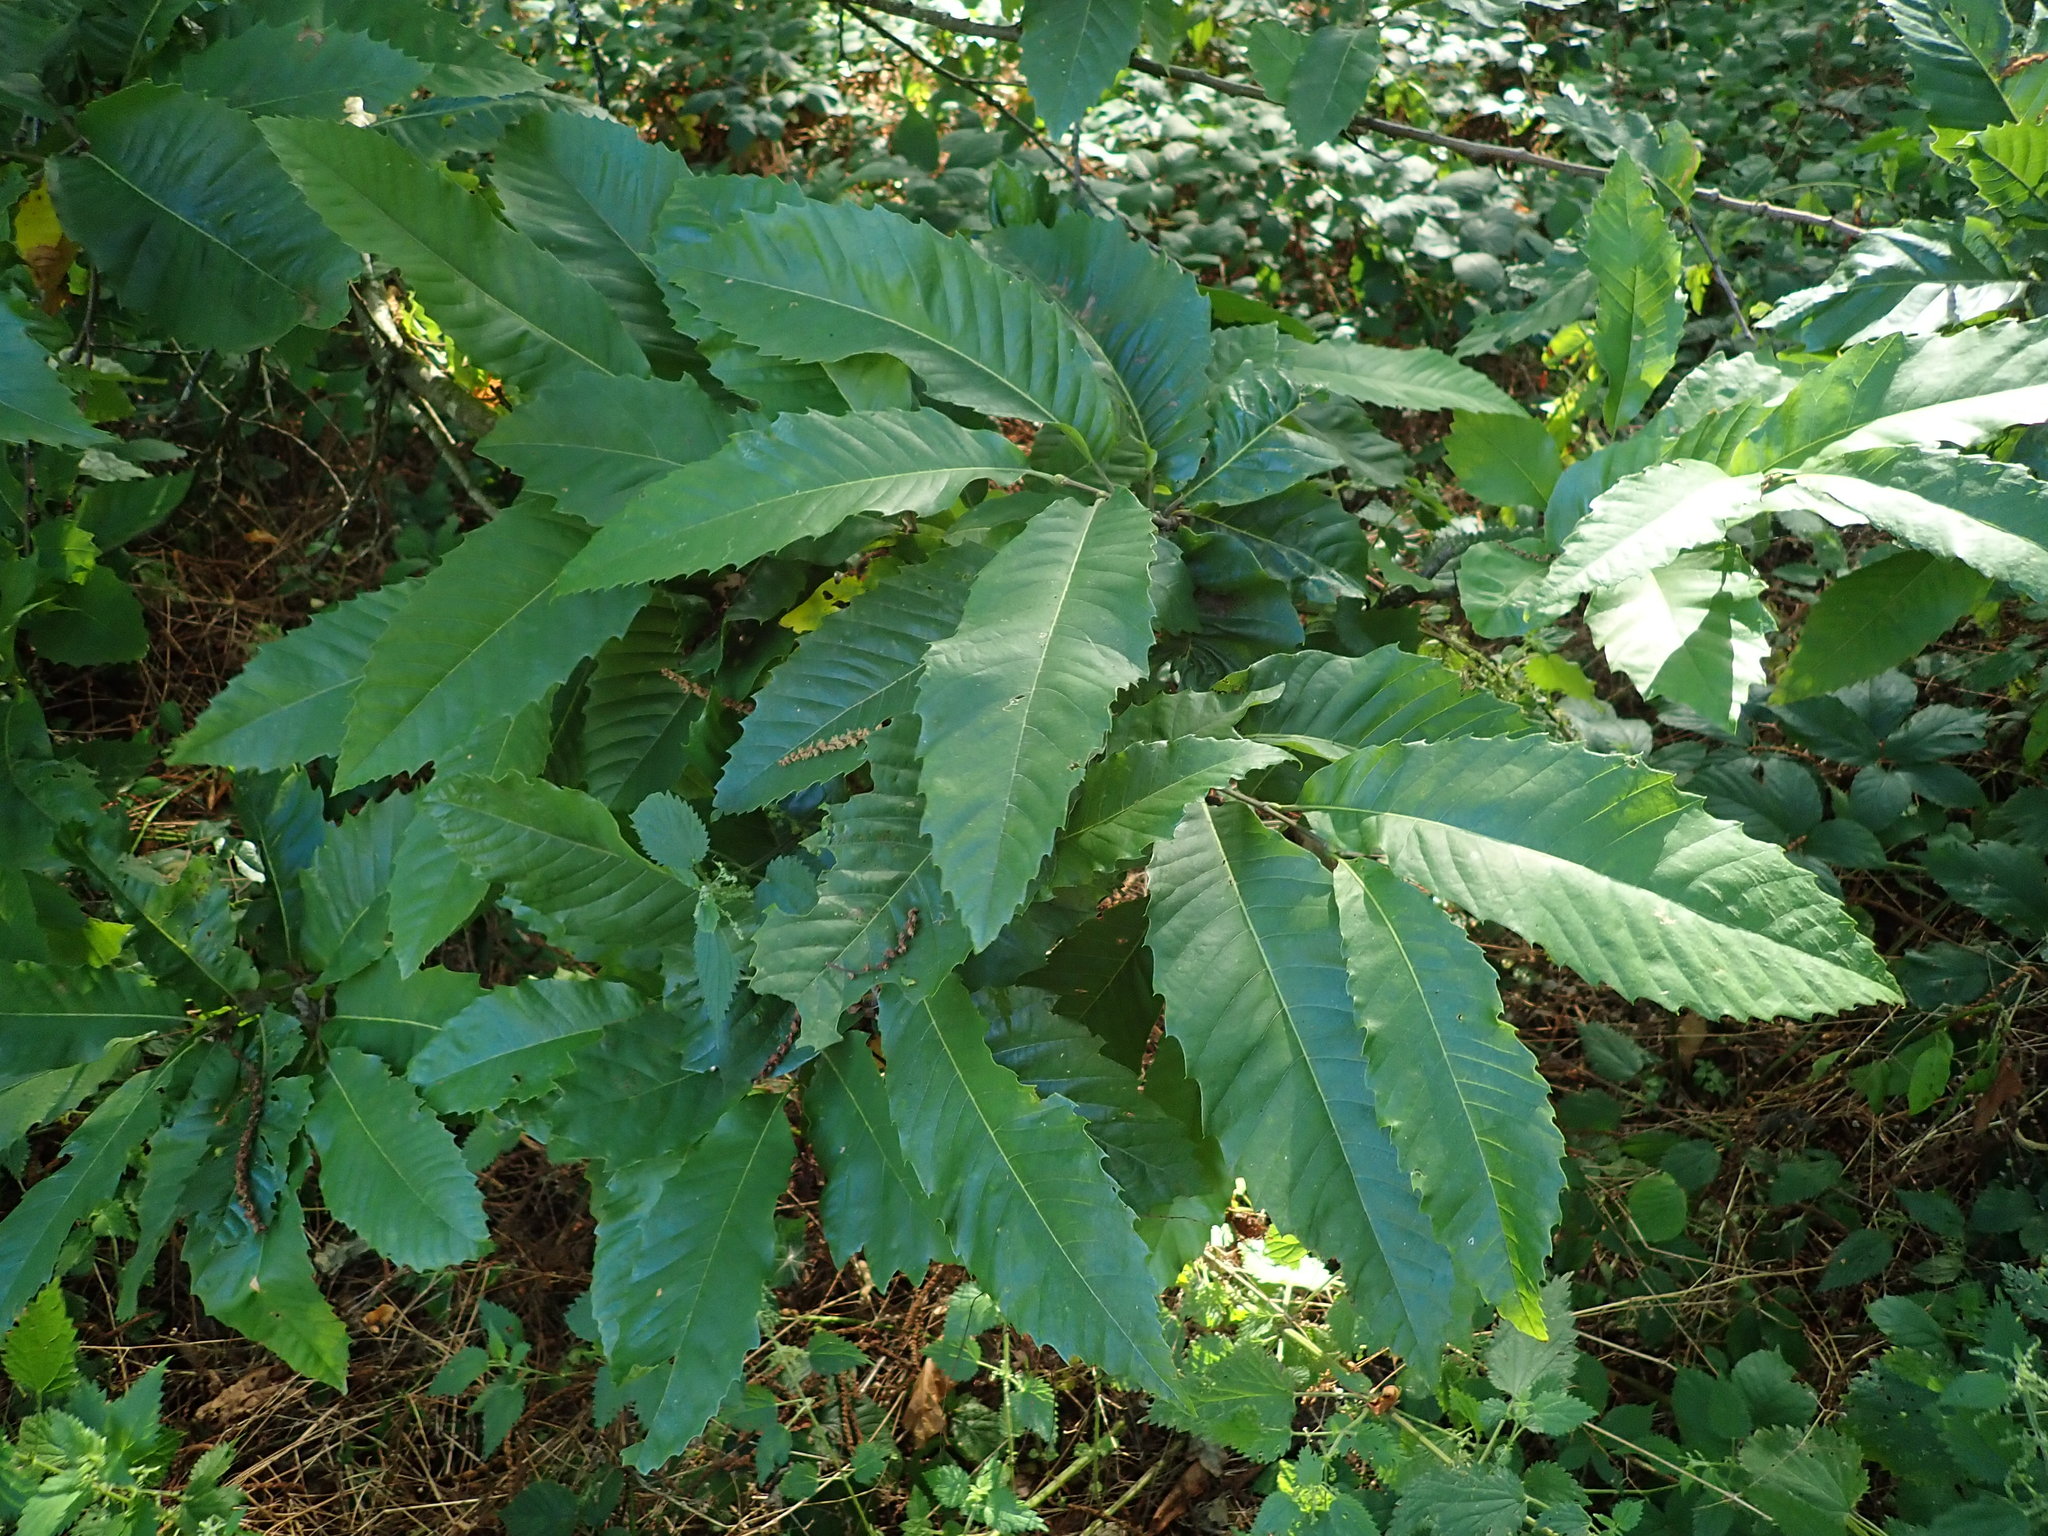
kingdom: Plantae
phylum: Tracheophyta
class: Magnoliopsida
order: Fagales
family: Fagaceae
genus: Castanea
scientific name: Castanea sativa
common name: Sweet chestnut
